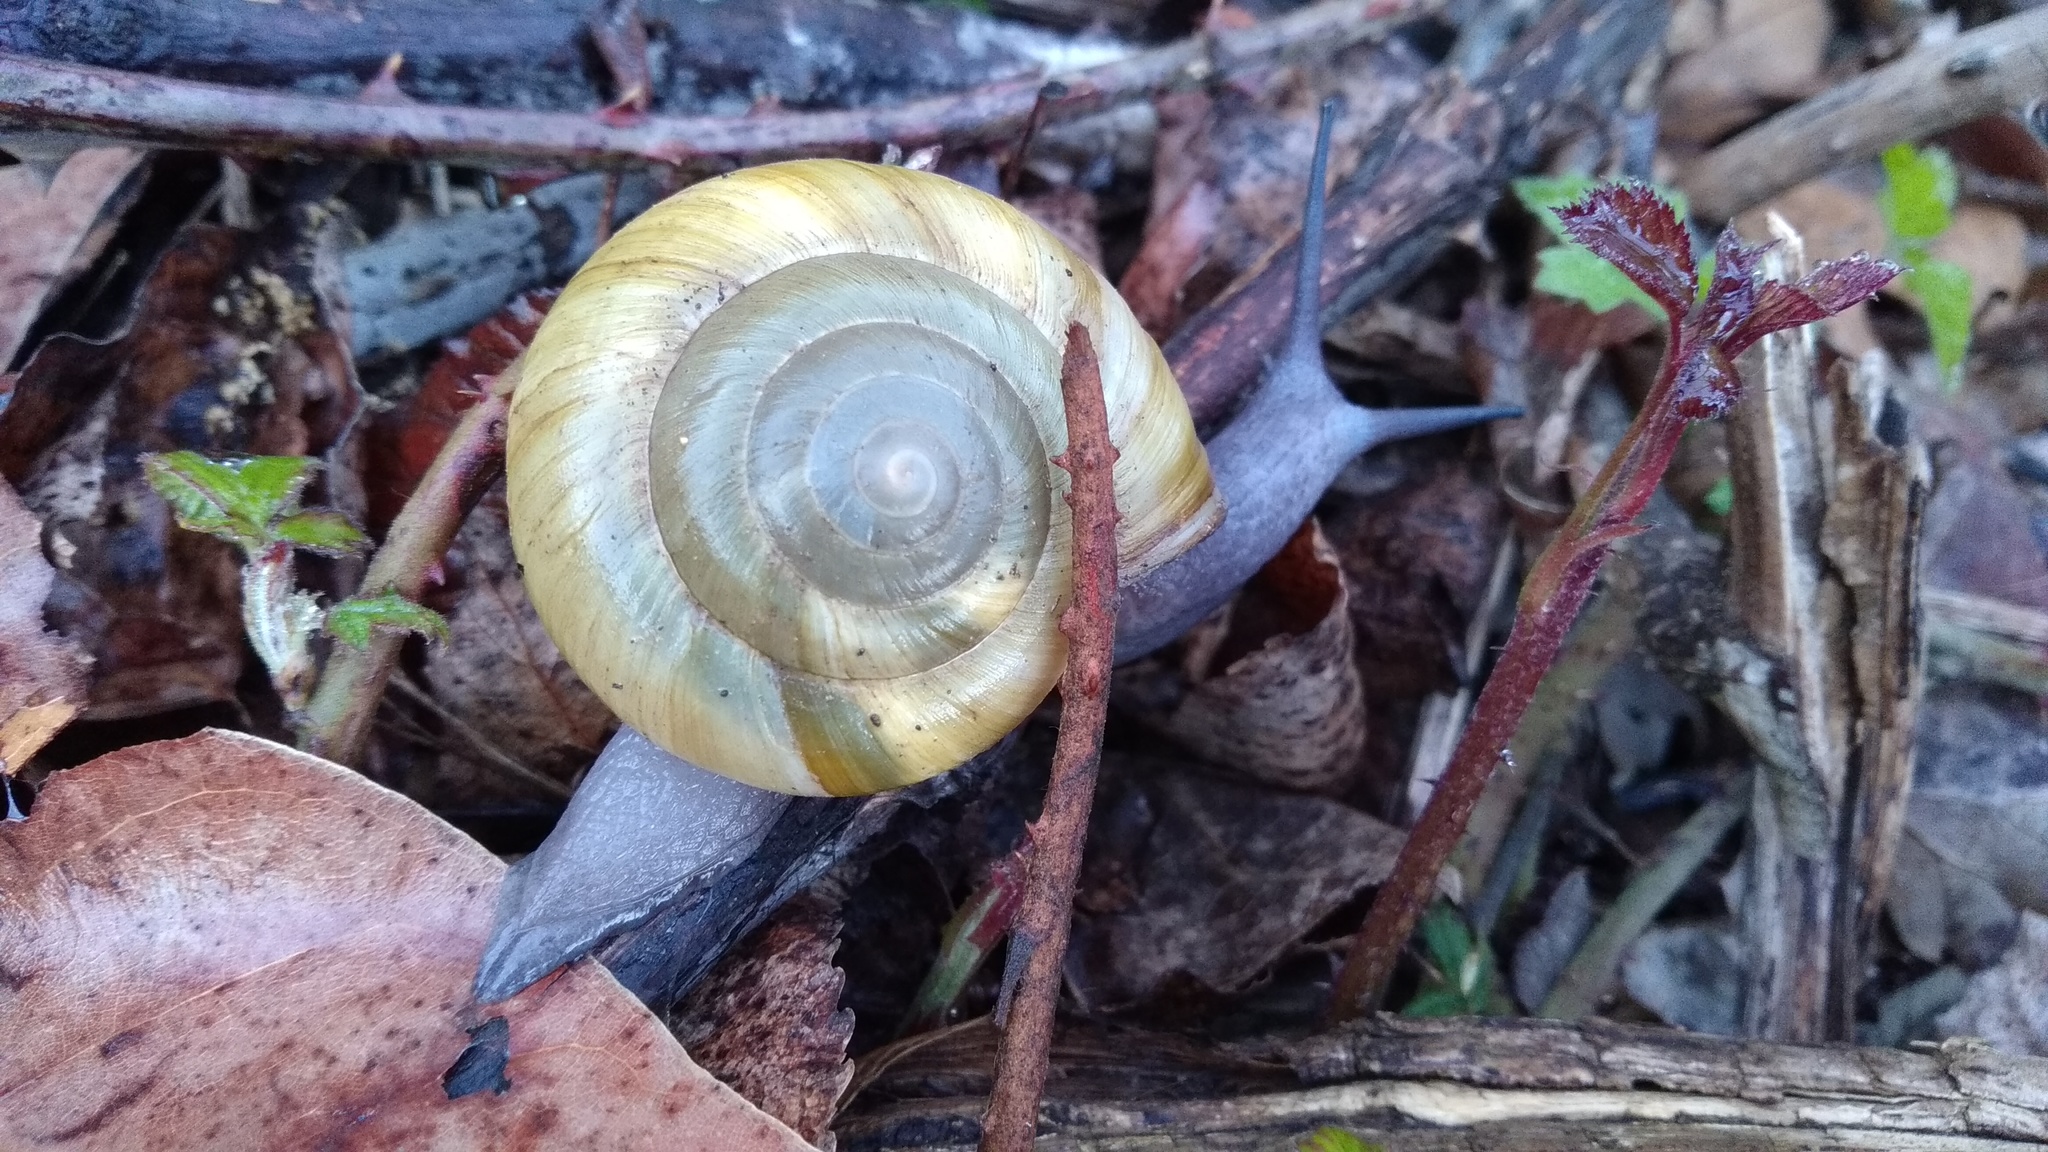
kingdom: Animalia
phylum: Mollusca
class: Gastropoda
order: Stylommatophora
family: Zonitidae
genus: Zonites
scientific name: Zonites algirus
